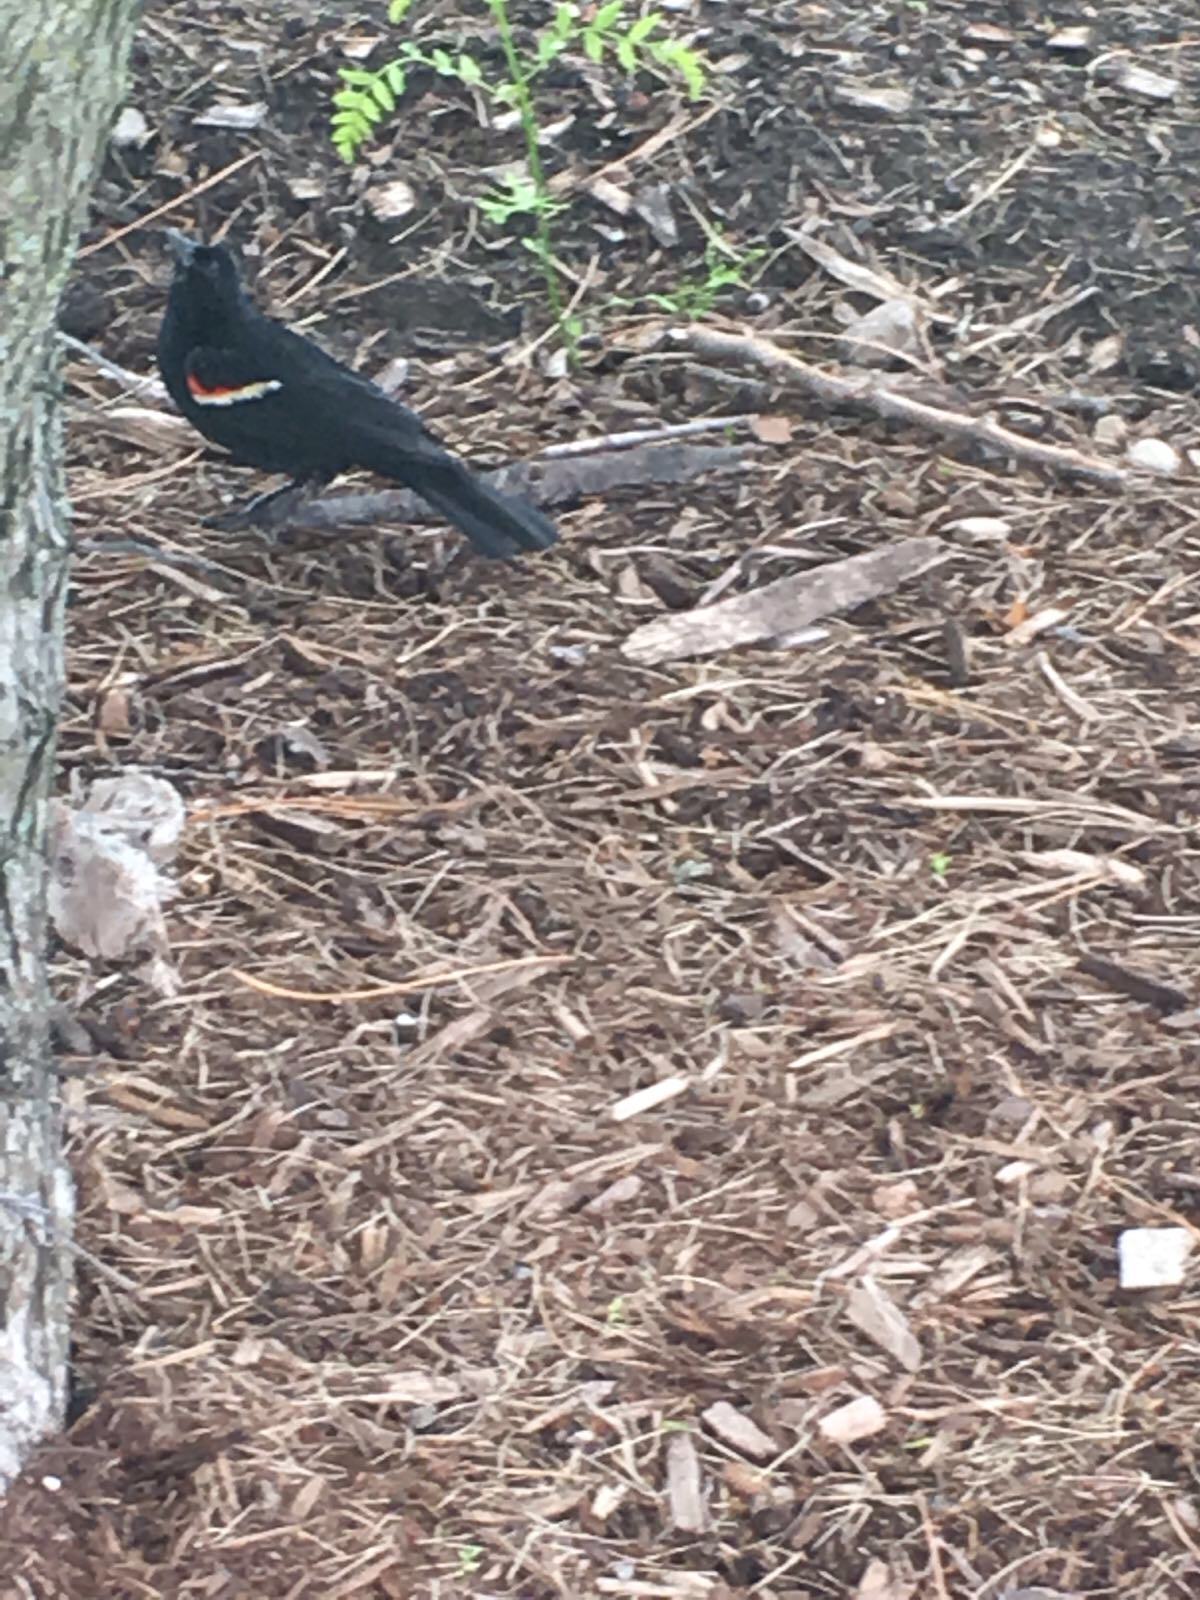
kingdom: Animalia
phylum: Chordata
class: Aves
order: Passeriformes
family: Icteridae
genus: Agelaius
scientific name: Agelaius phoeniceus
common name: Red-winged blackbird
